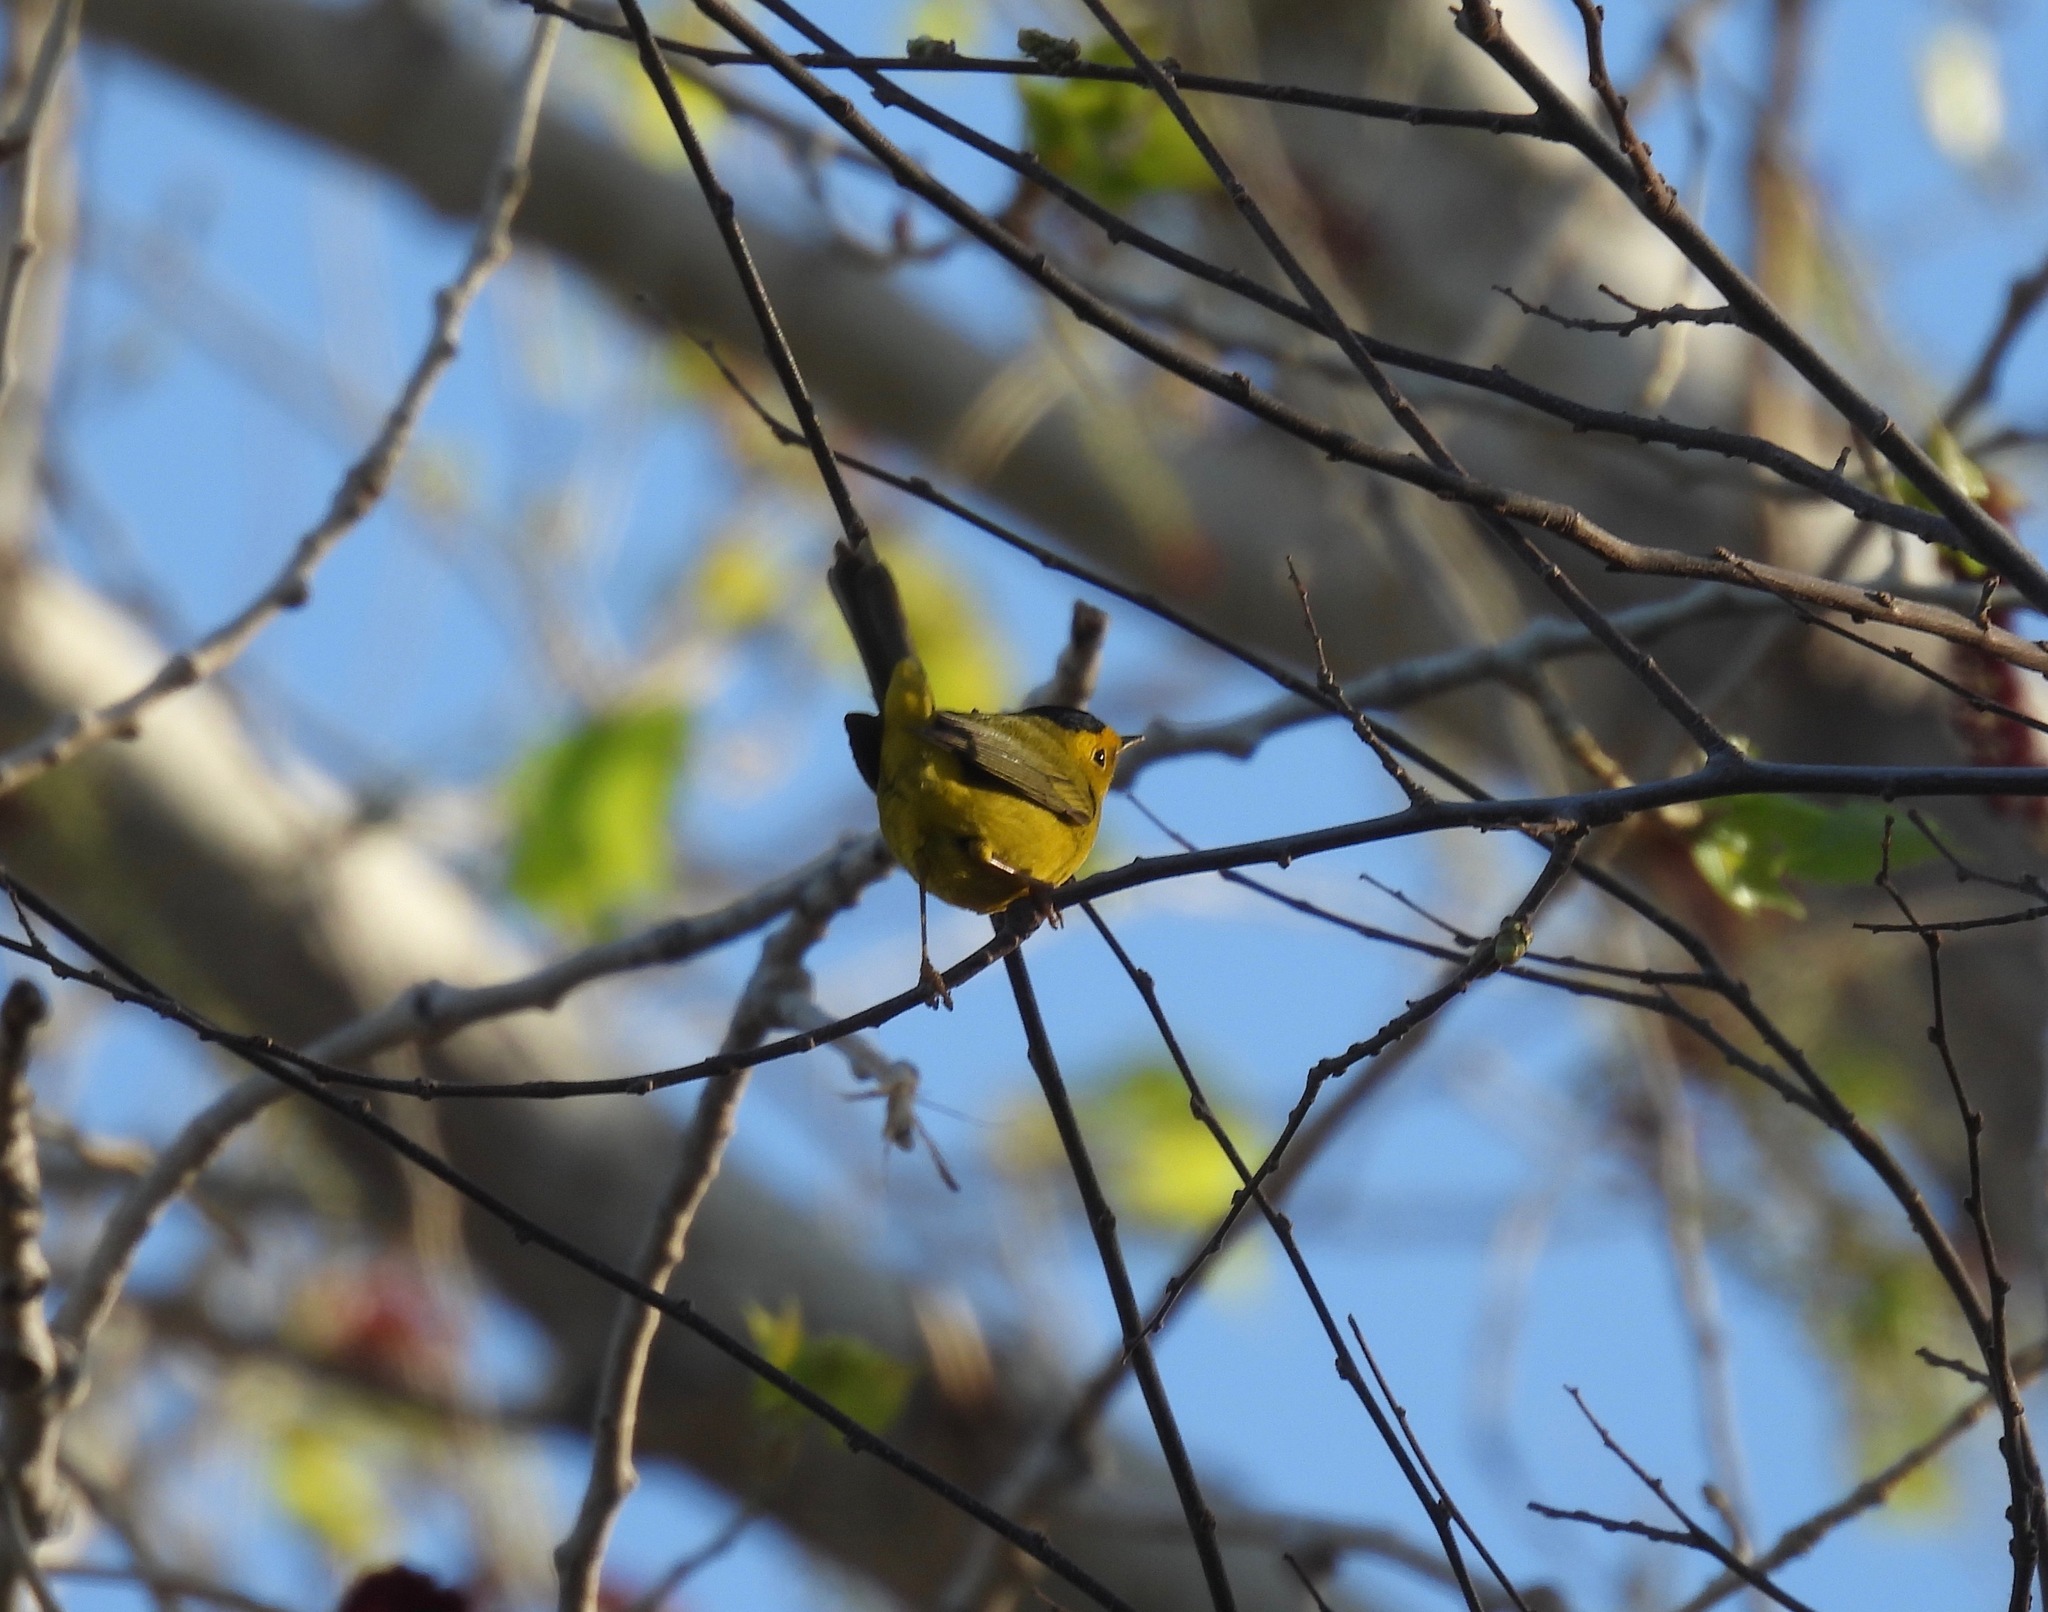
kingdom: Animalia
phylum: Chordata
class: Aves
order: Passeriformes
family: Parulidae
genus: Cardellina
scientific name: Cardellina pusilla
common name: Wilson's warbler
